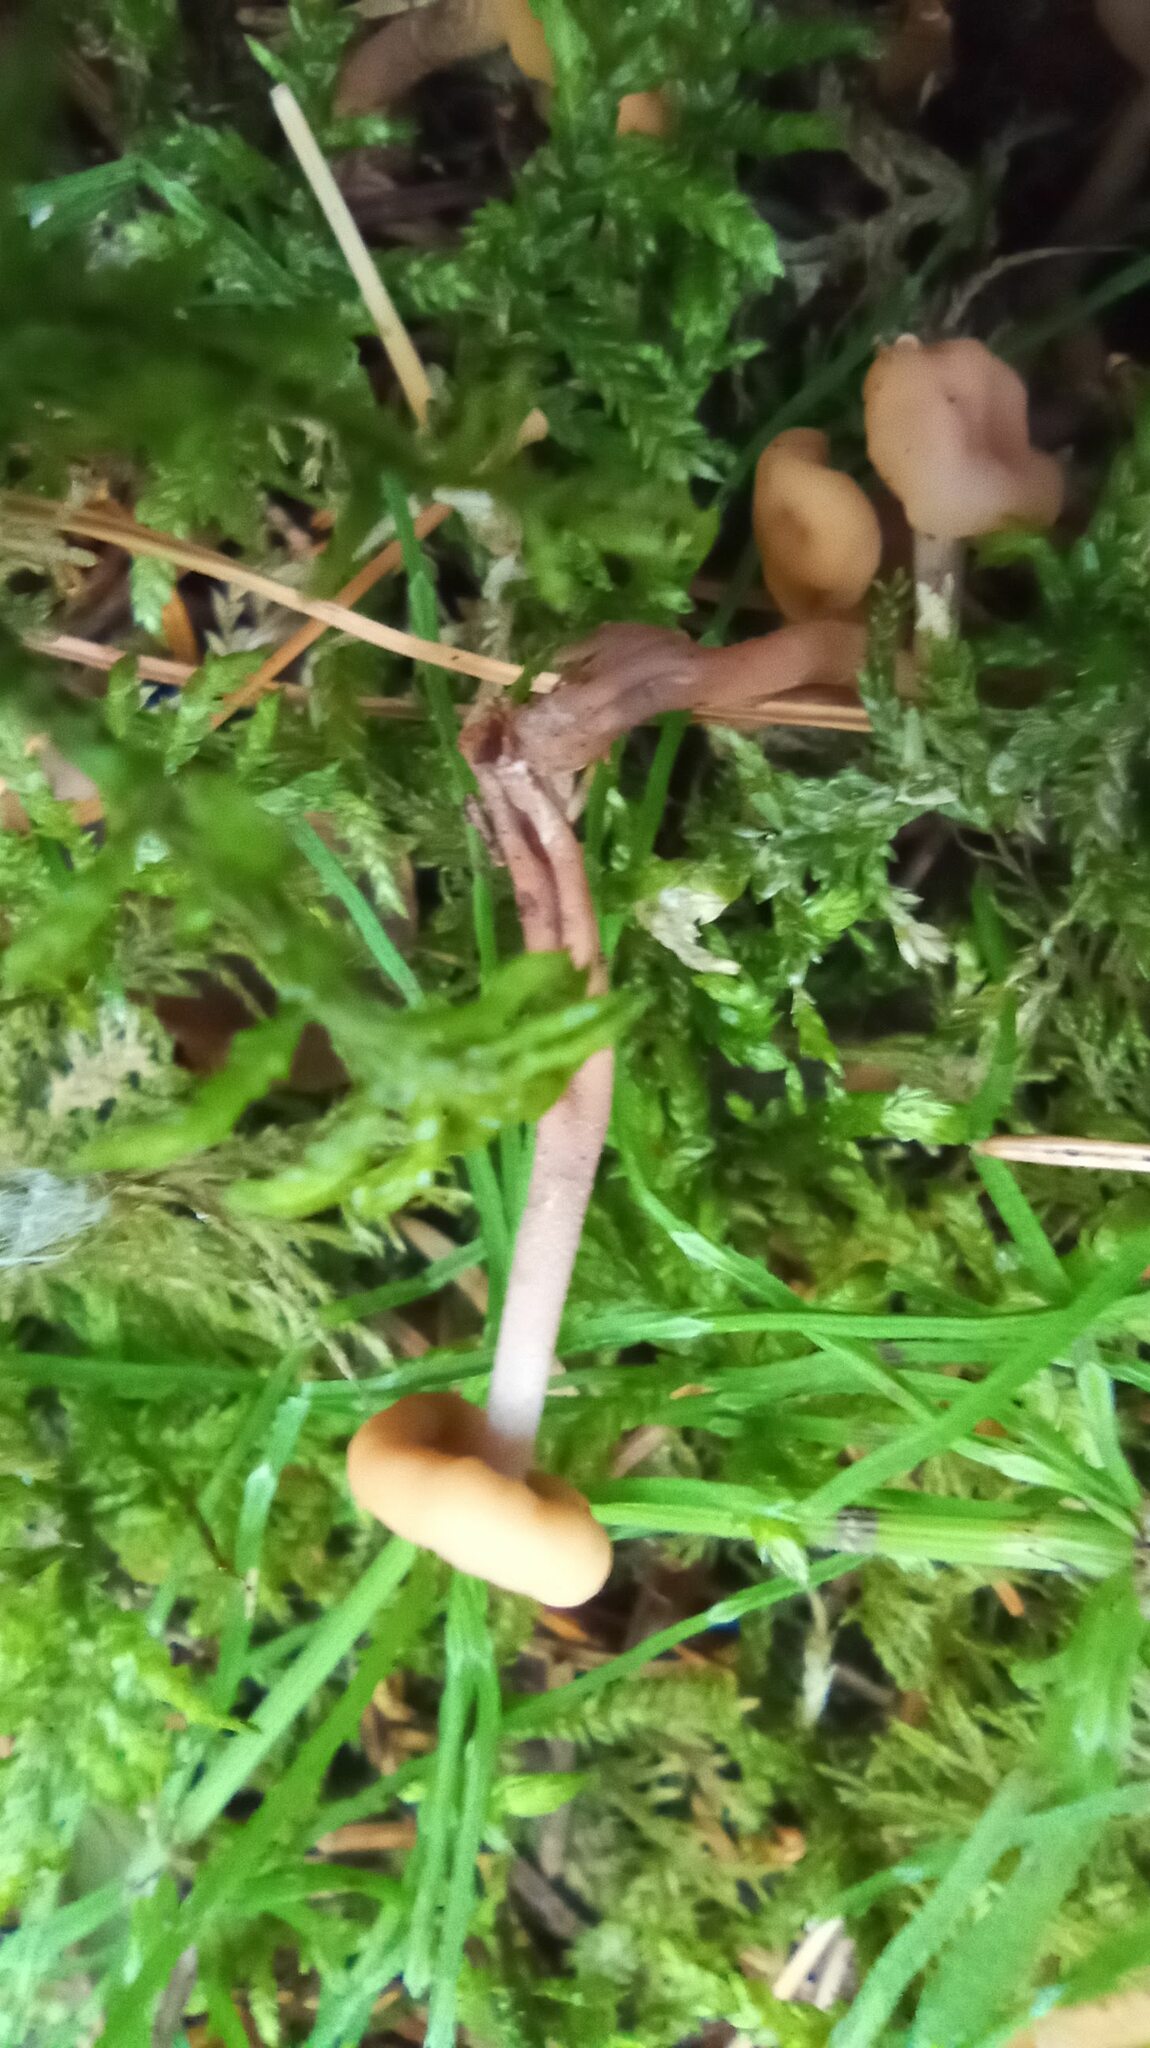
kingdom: Fungi
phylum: Ascomycota
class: Leotiomycetes
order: Rhytismatales
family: Cudoniaceae
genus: Cudonia
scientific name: Cudonia circinans
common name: Redleg jellybaby
